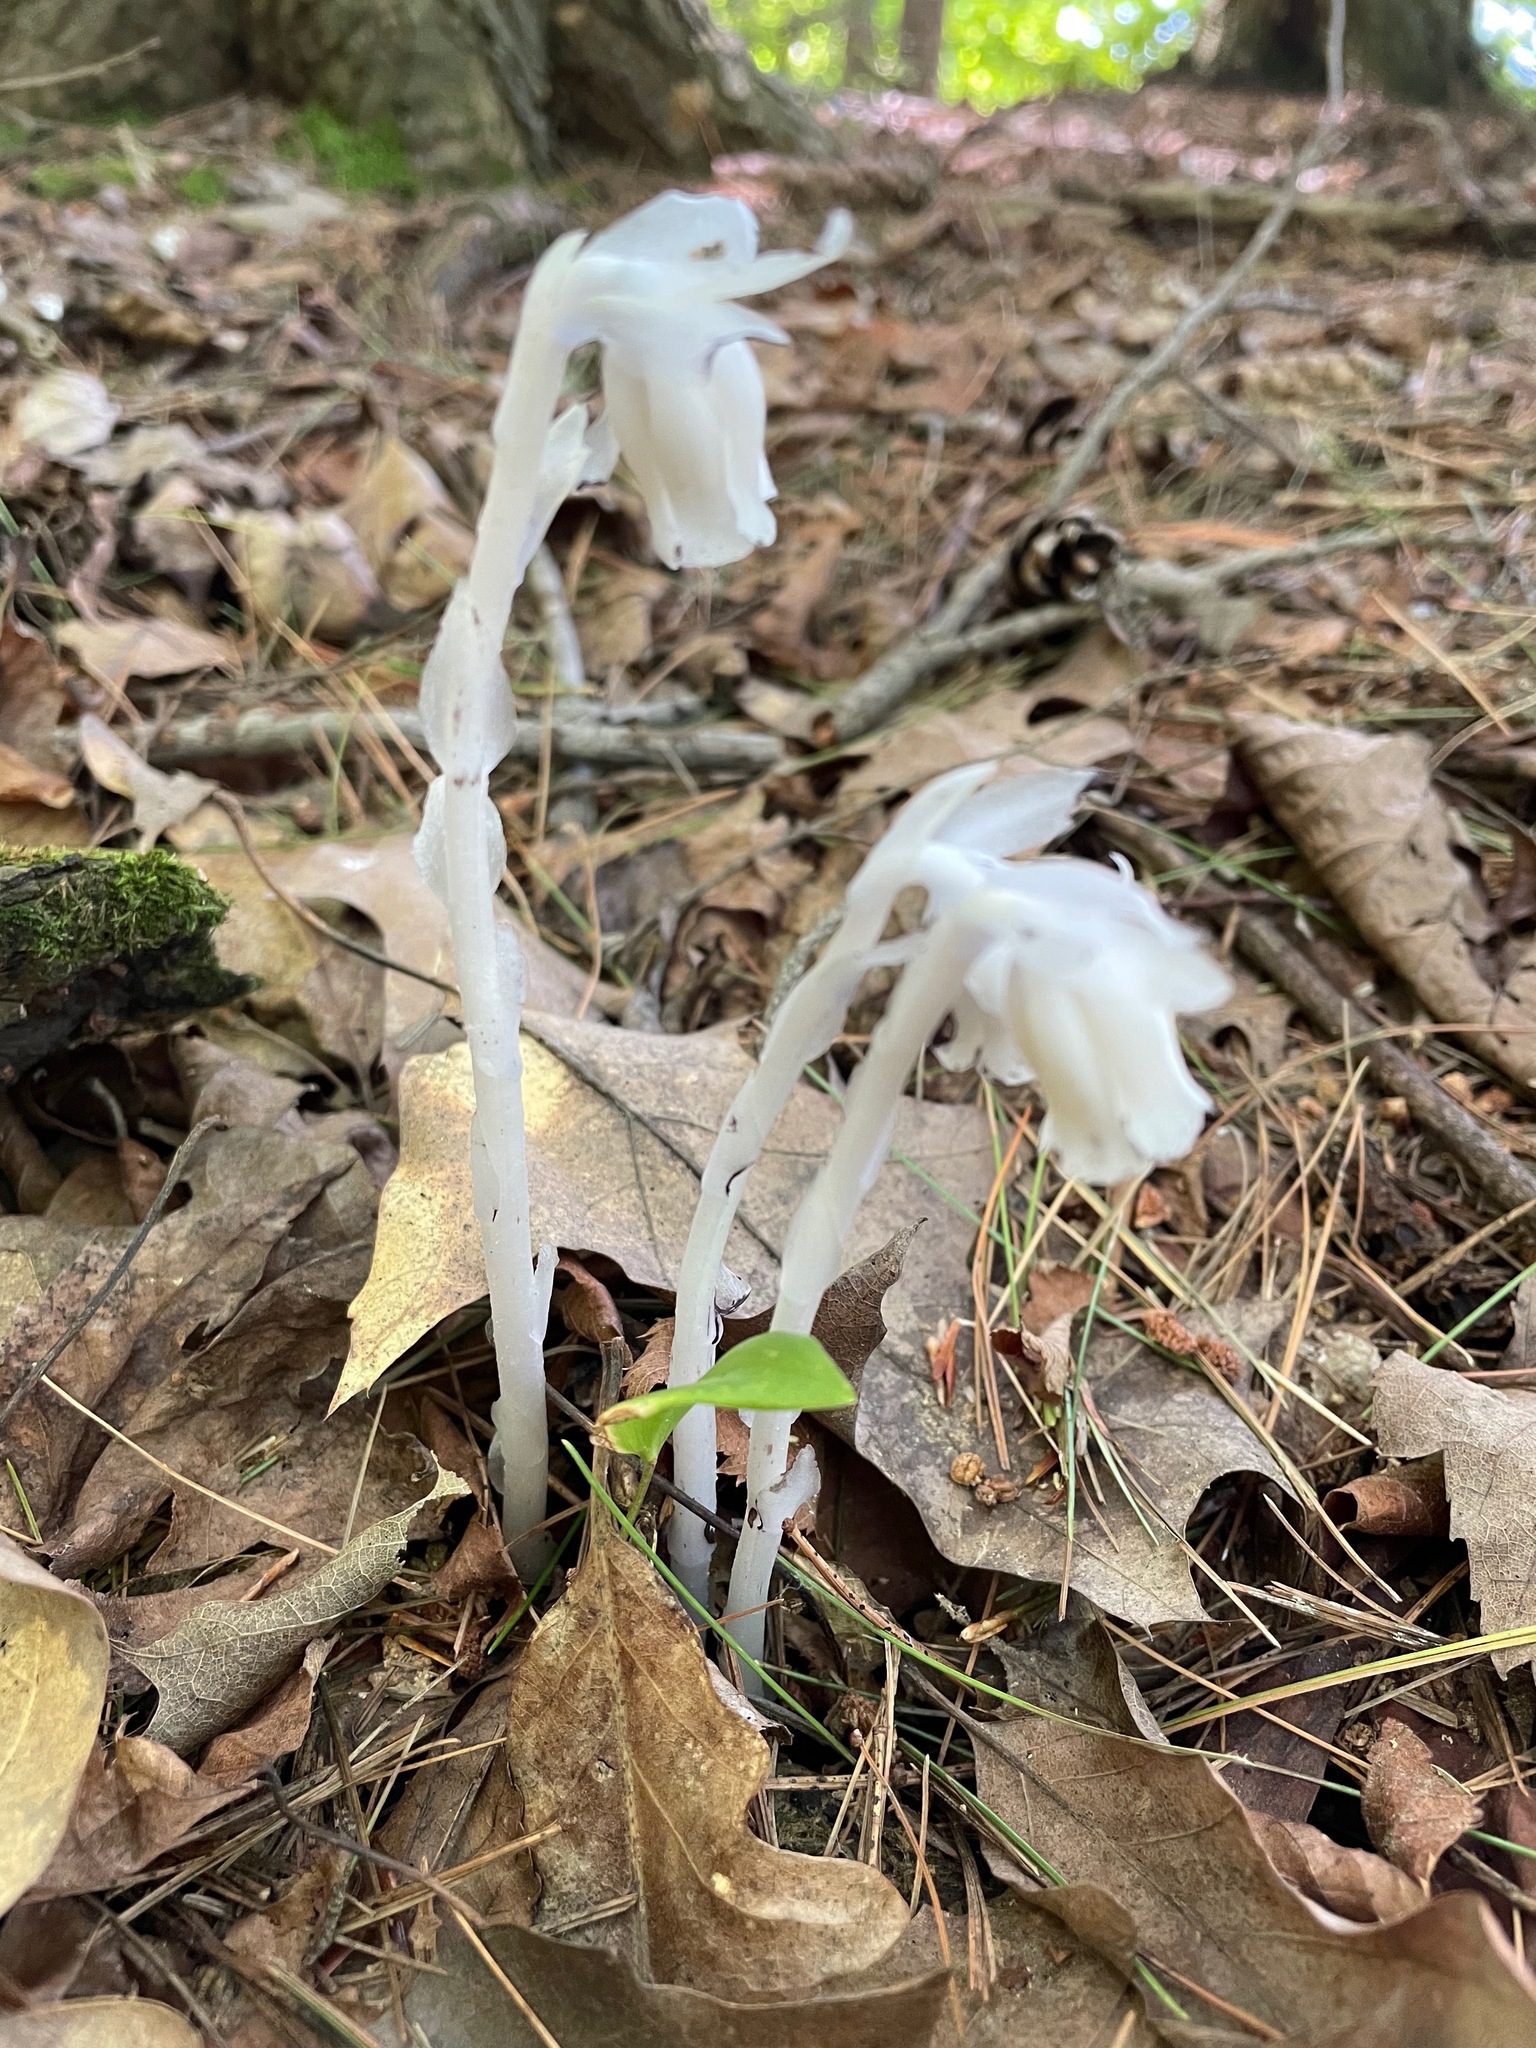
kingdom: Plantae
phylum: Tracheophyta
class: Magnoliopsida
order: Ericales
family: Ericaceae
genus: Monotropa
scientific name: Monotropa uniflora
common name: Convulsion root
